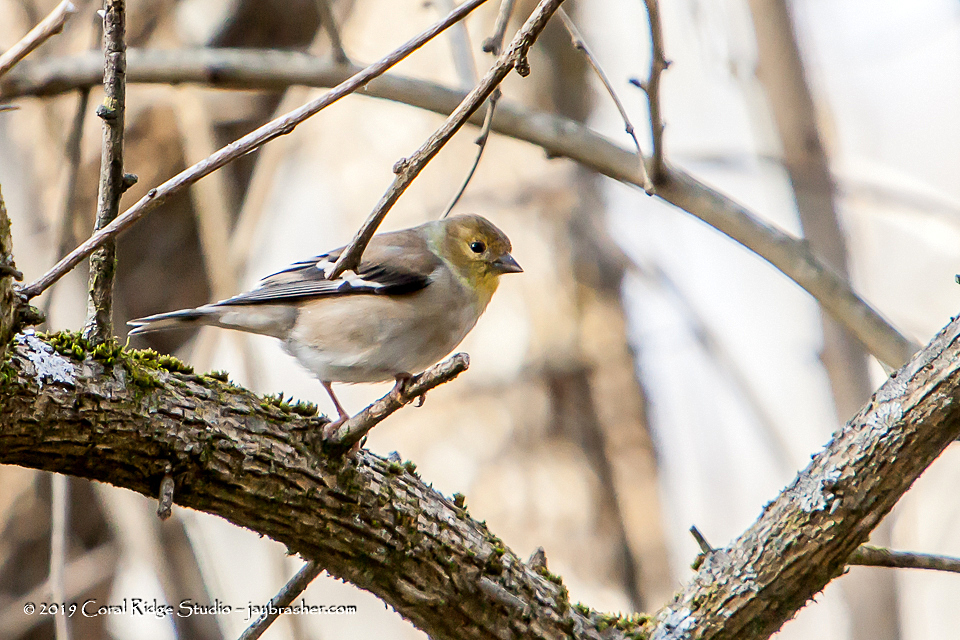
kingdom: Animalia
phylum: Chordata
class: Aves
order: Passeriformes
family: Fringillidae
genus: Spinus
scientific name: Spinus tristis
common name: American goldfinch
